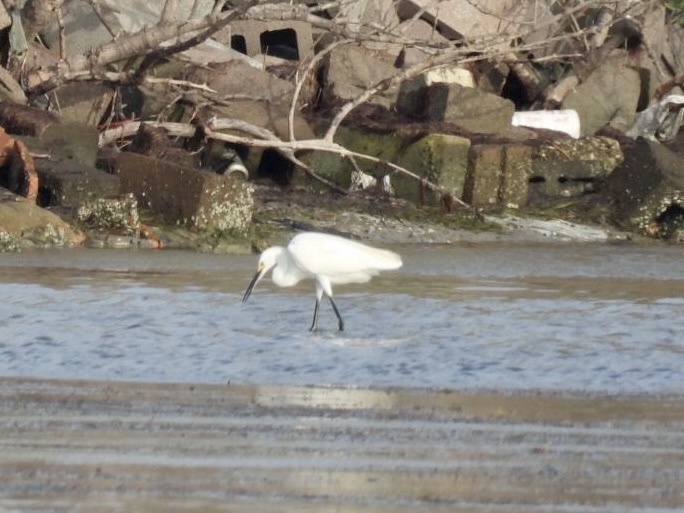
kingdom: Animalia
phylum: Chordata
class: Aves
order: Pelecaniformes
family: Ardeidae
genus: Egretta
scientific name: Egretta thula
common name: Snowy egret
